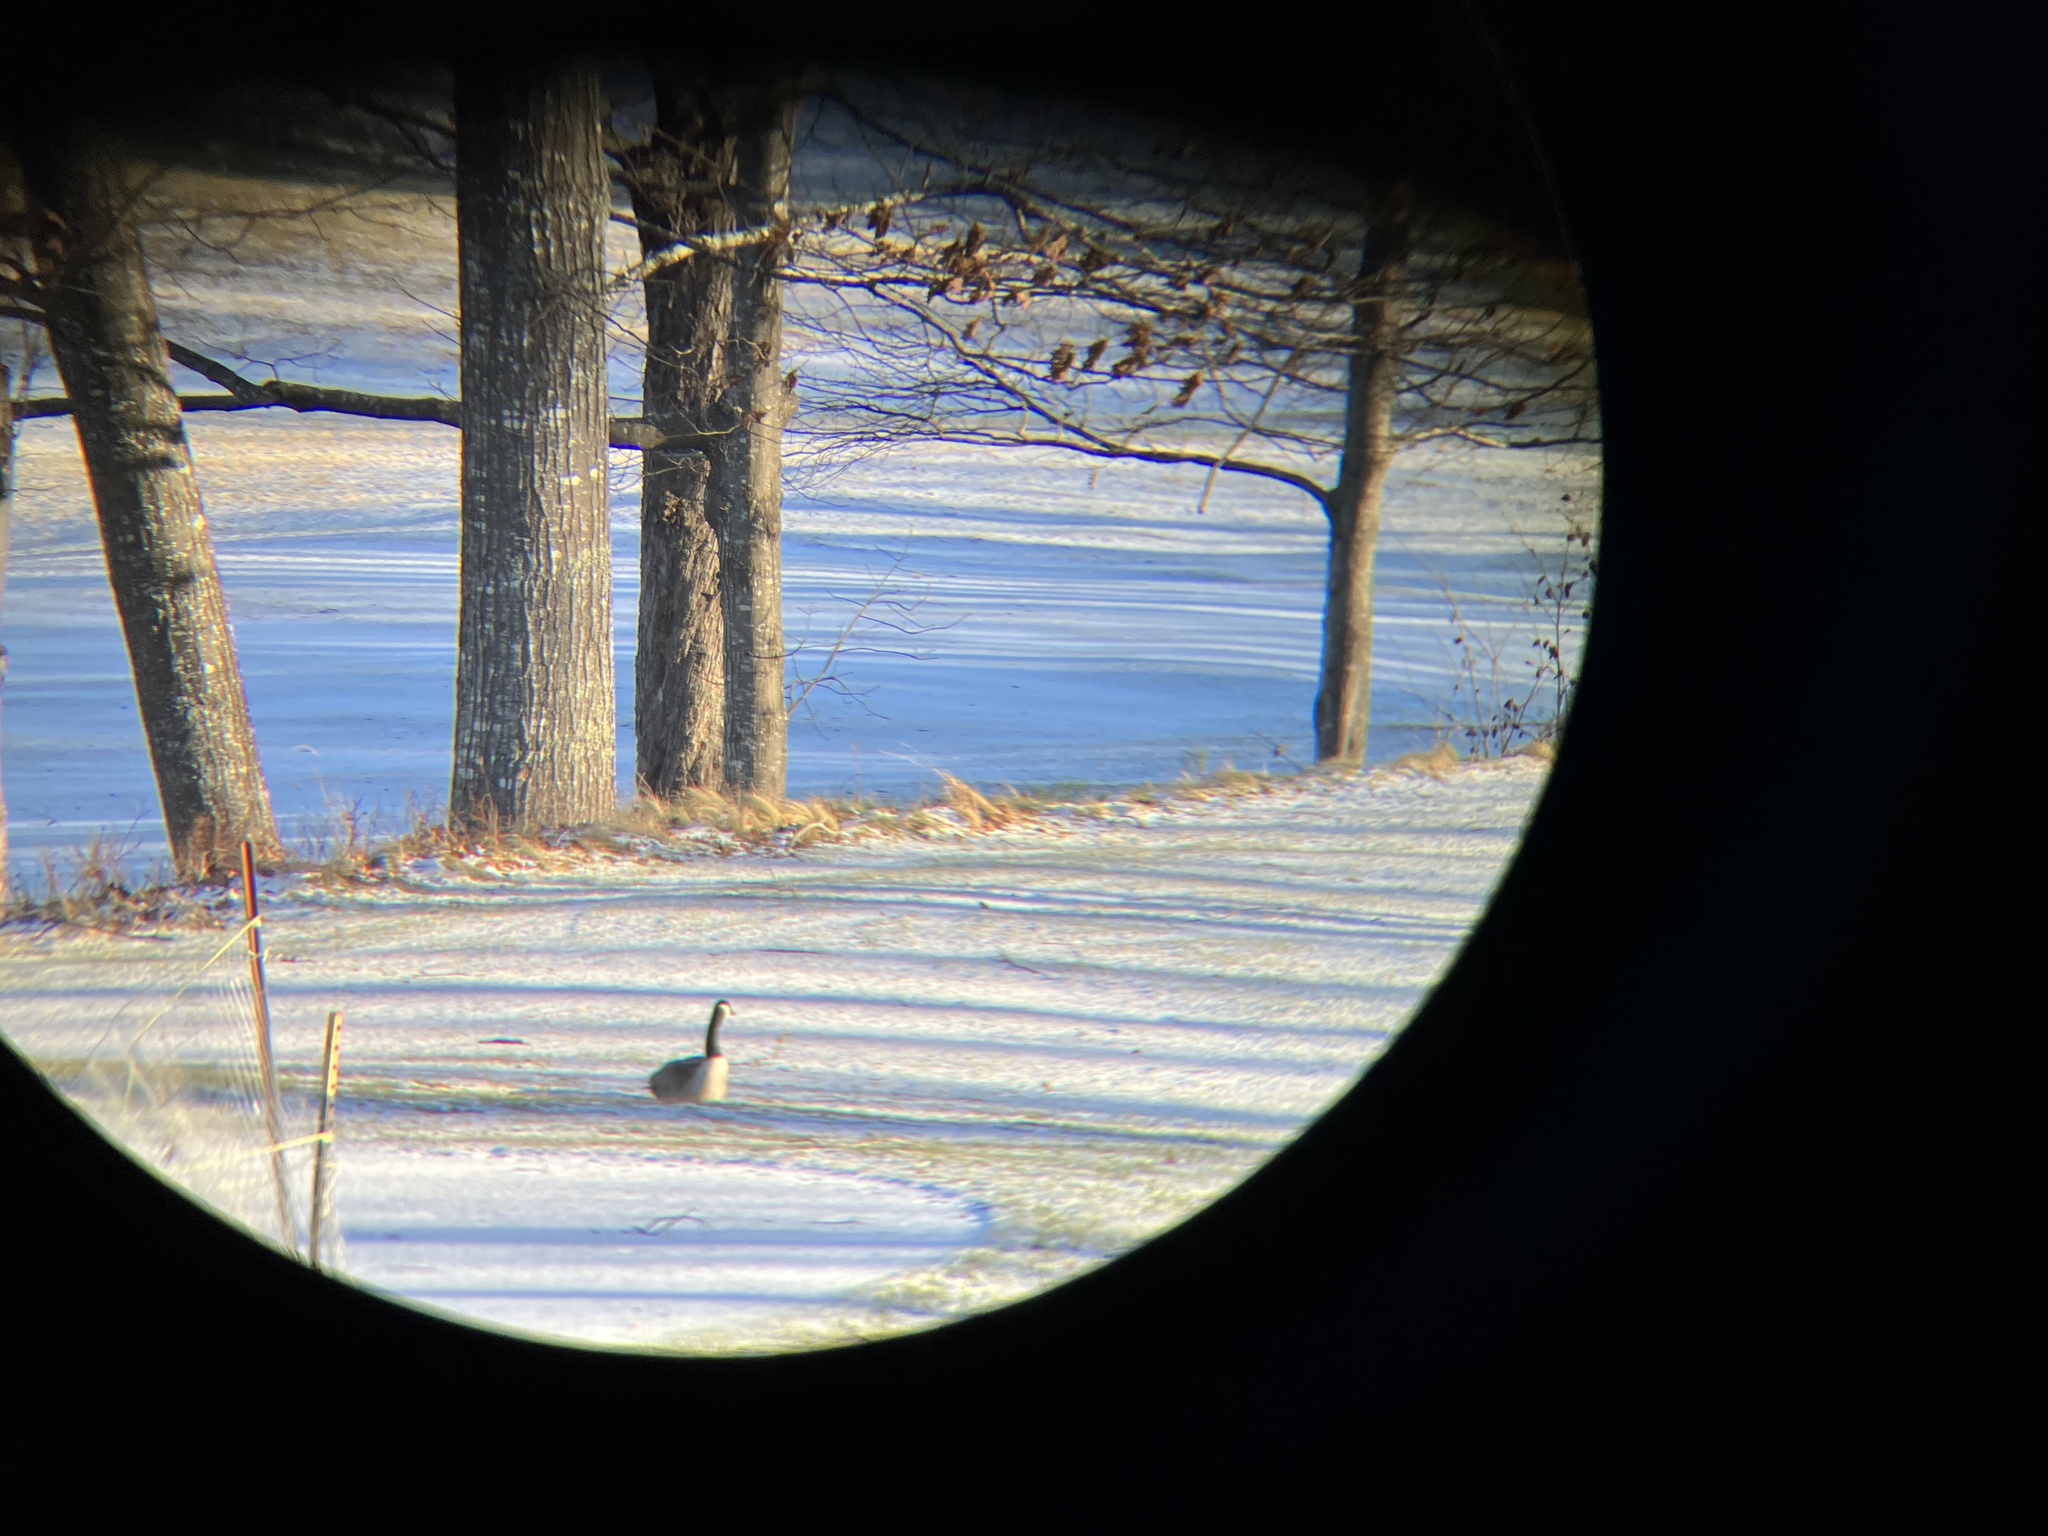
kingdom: Animalia
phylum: Chordata
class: Aves
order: Anseriformes
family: Anatidae
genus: Branta
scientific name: Branta canadensis
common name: Canada goose
